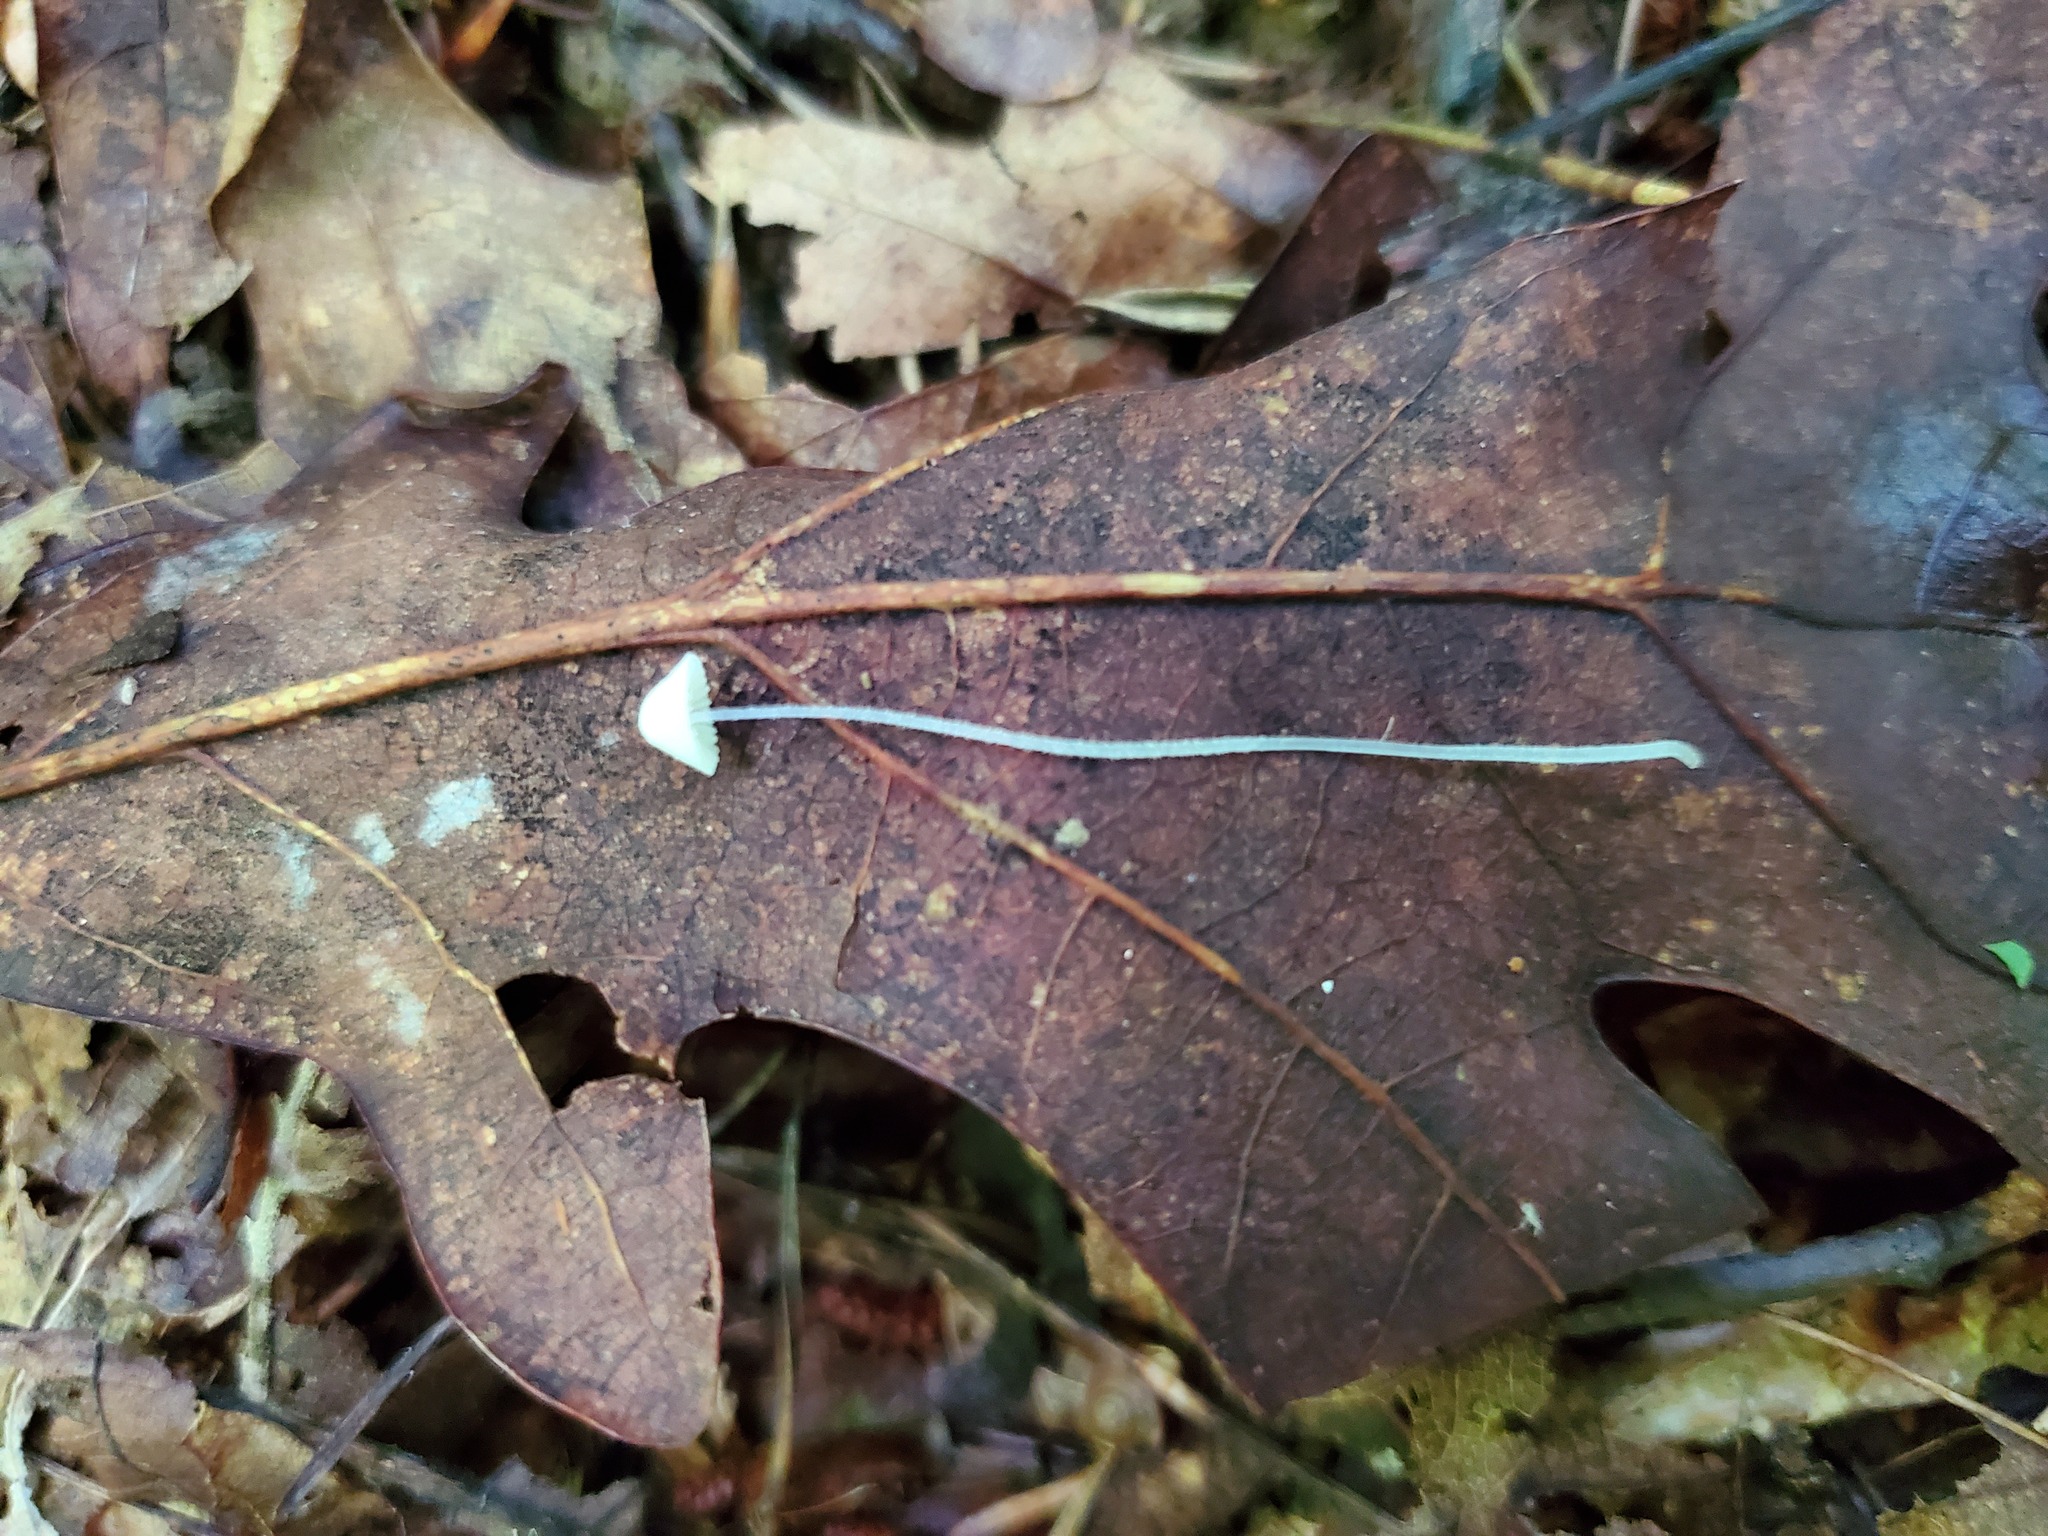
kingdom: Fungi
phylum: Basidiomycota
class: Agaricomycetes
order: Agaricales
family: Mycenaceae
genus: Mycena
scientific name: Mycena alphitophora
